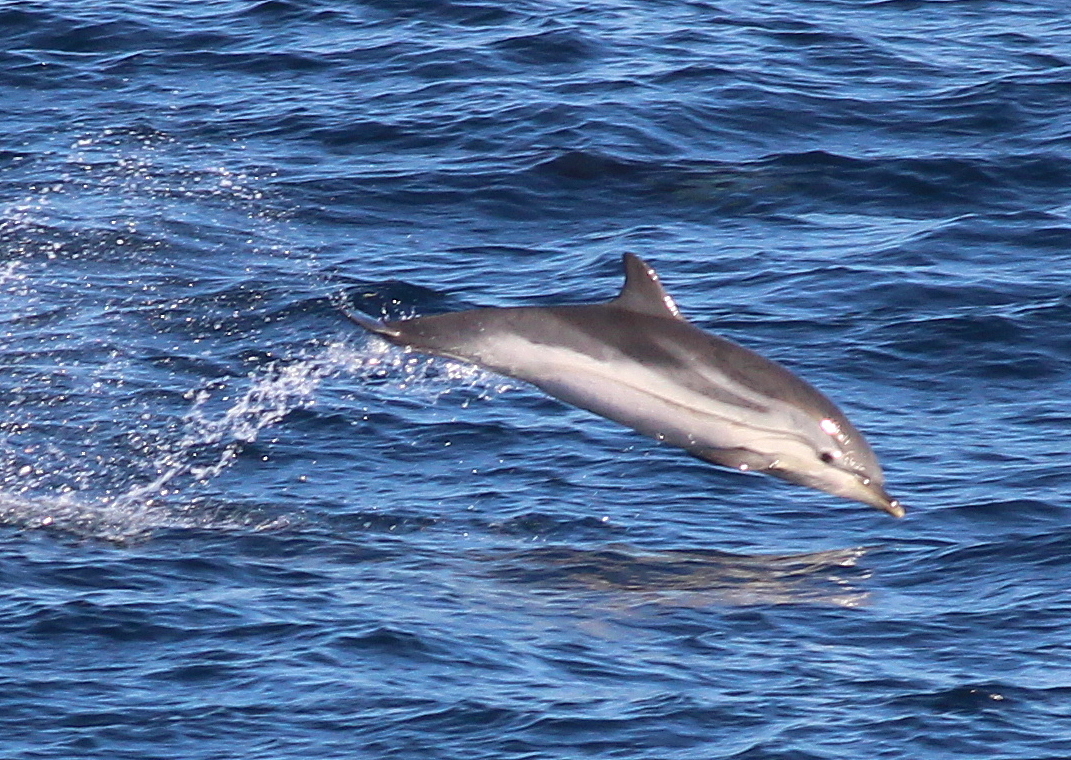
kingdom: Animalia
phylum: Chordata
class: Mammalia
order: Cetacea
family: Delphinidae
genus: Stenella
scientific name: Stenella coeruleoalba
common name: Striped dolphin
